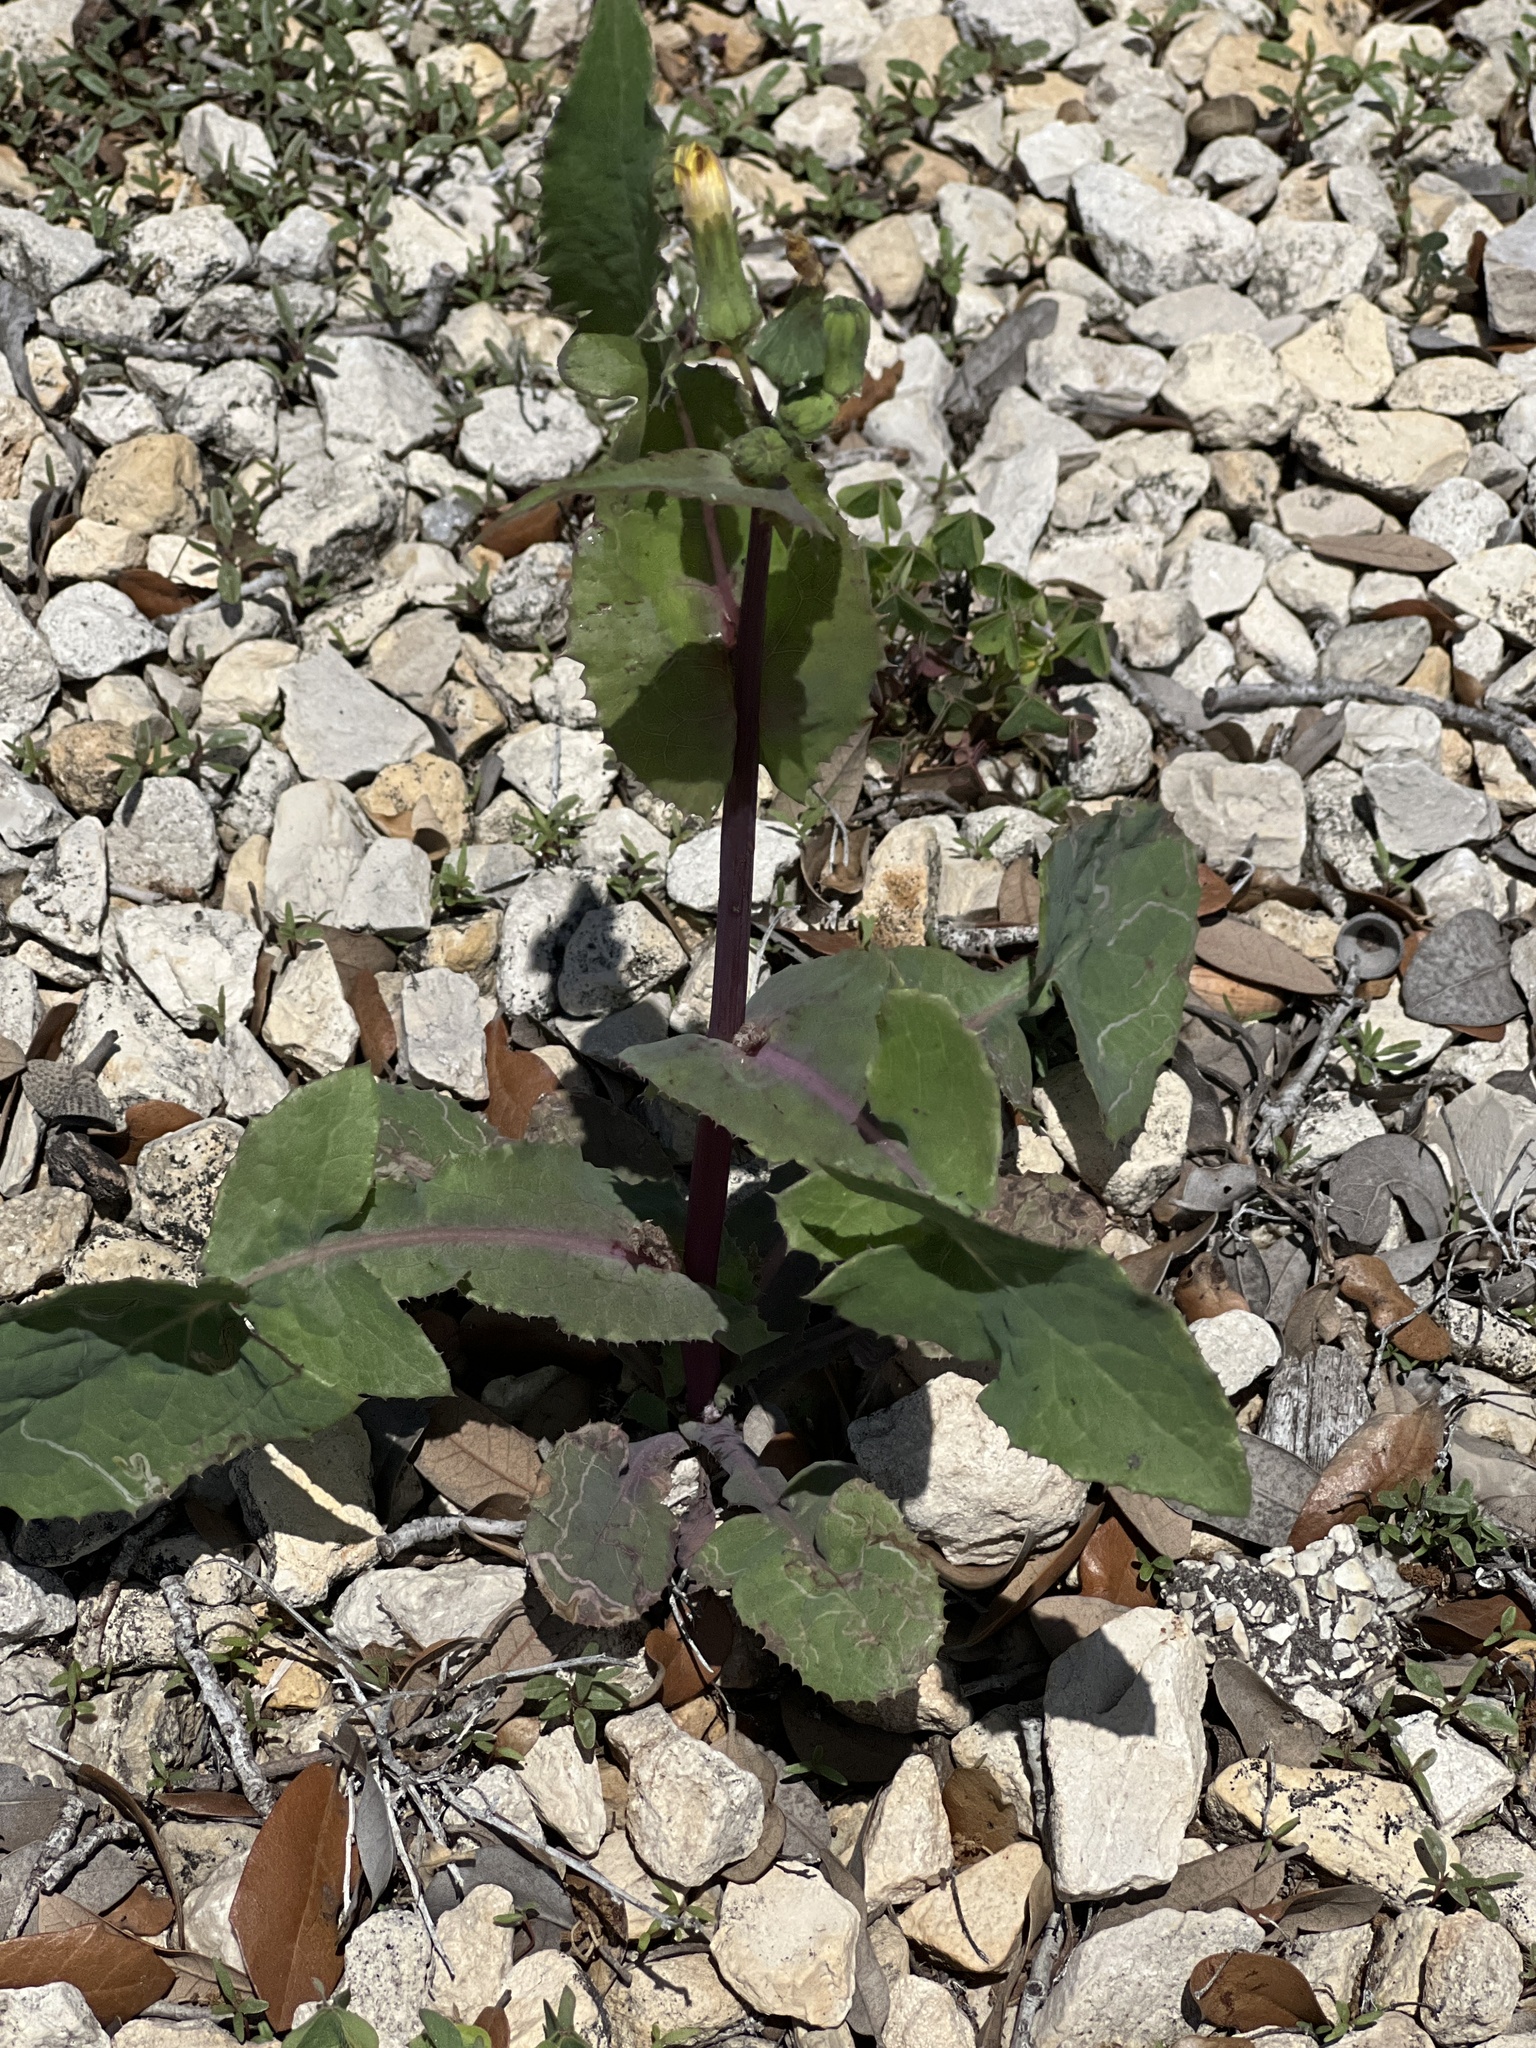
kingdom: Plantae
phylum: Tracheophyta
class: Magnoliopsida
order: Asterales
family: Asteraceae
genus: Sonchus
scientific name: Sonchus oleraceus
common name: Common sowthistle
